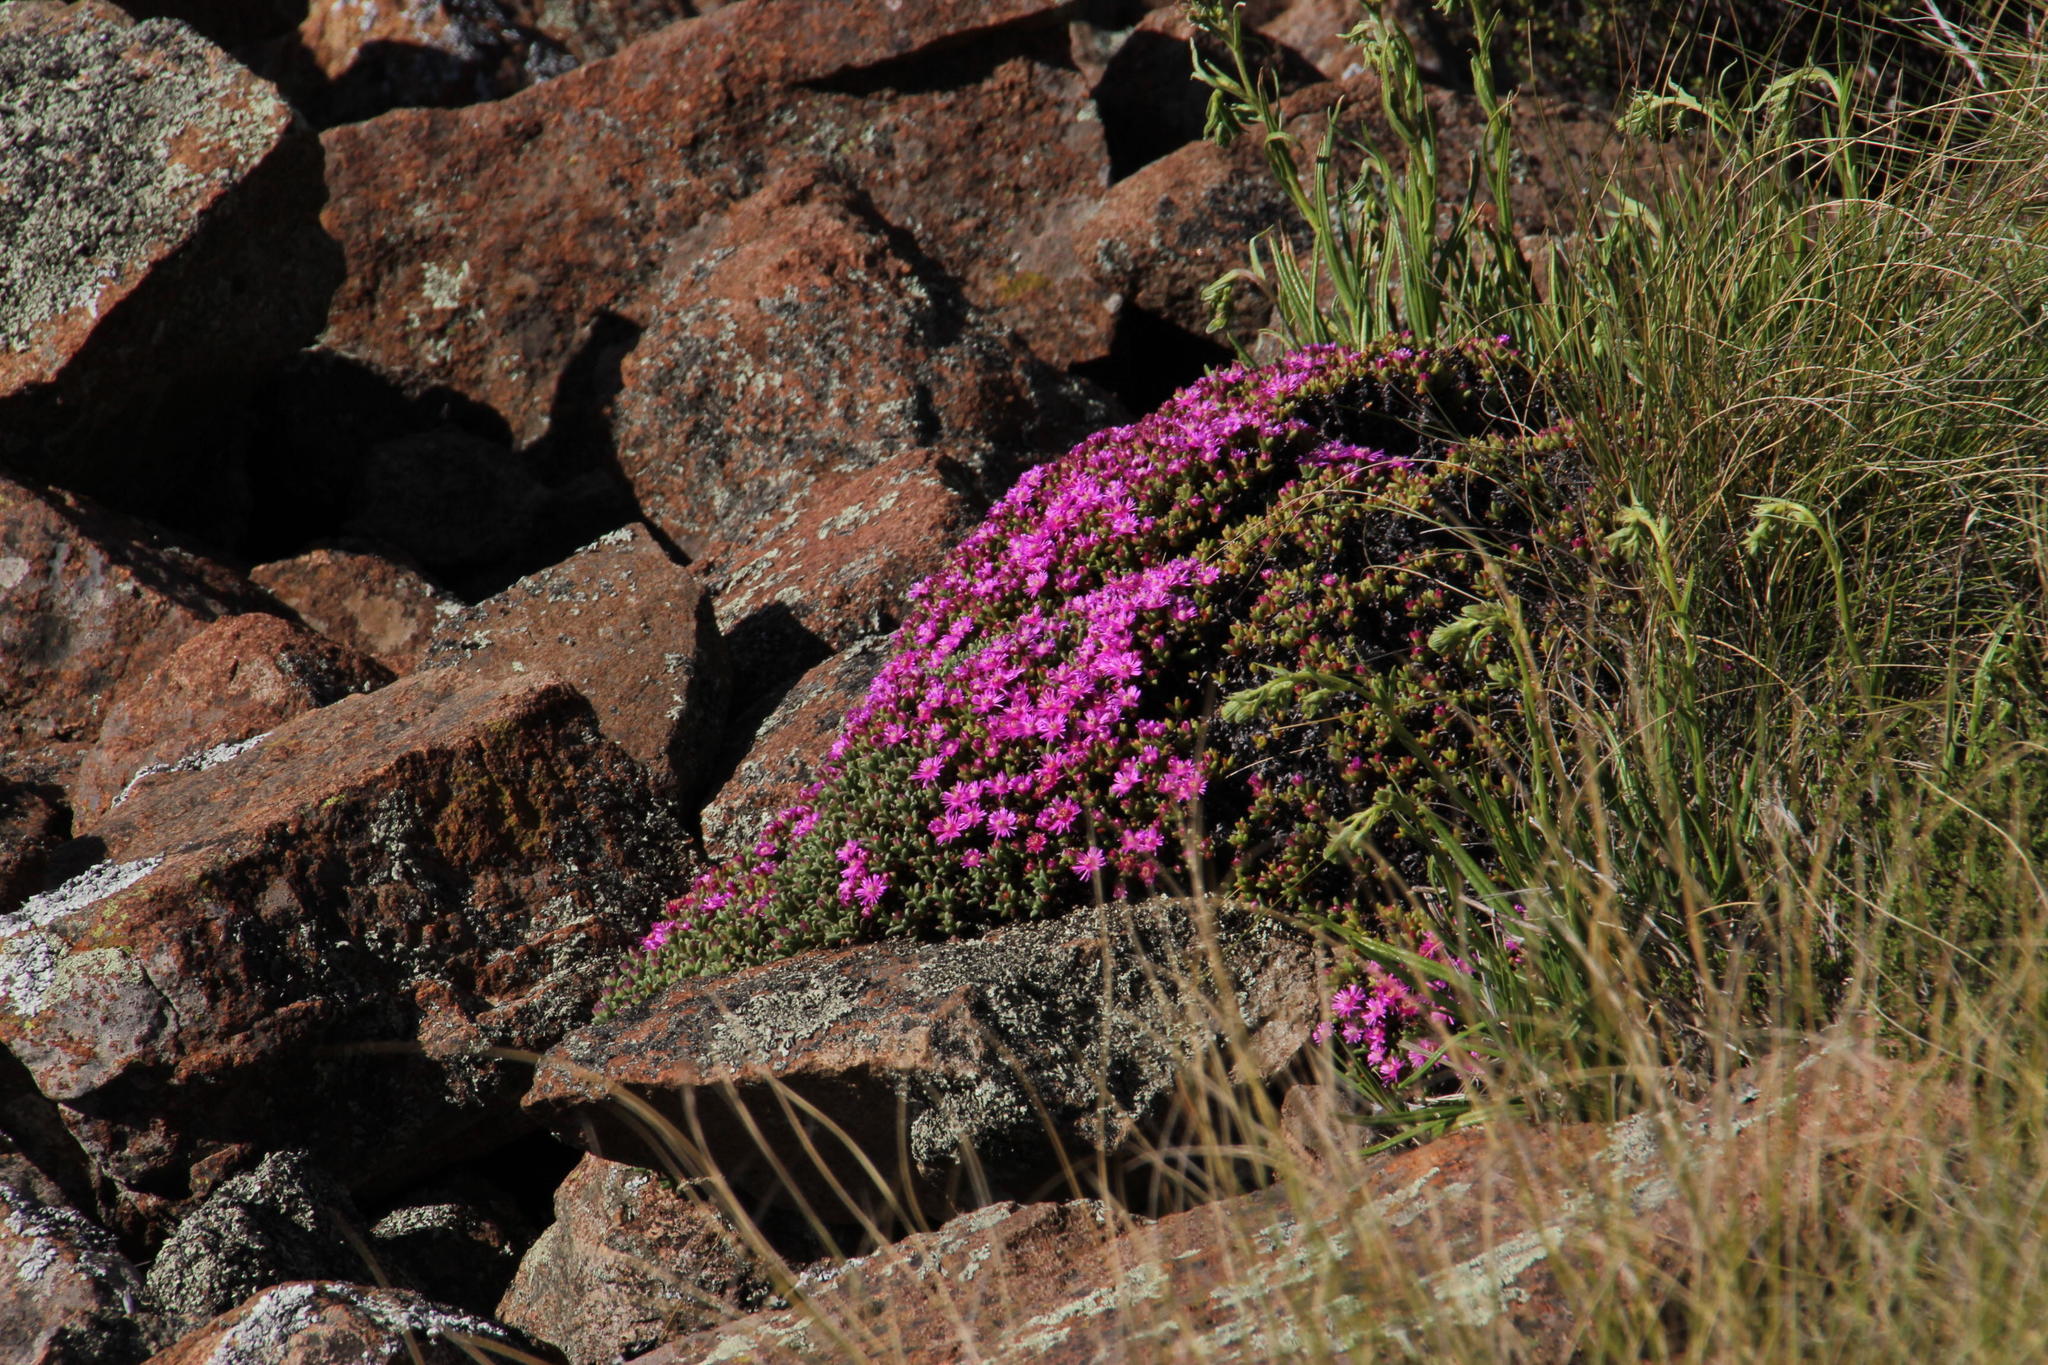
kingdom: Plantae
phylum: Tracheophyta
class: Magnoliopsida
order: Caryophyllales
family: Aizoaceae
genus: Ruschia
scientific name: Ruschia nonimpressa
